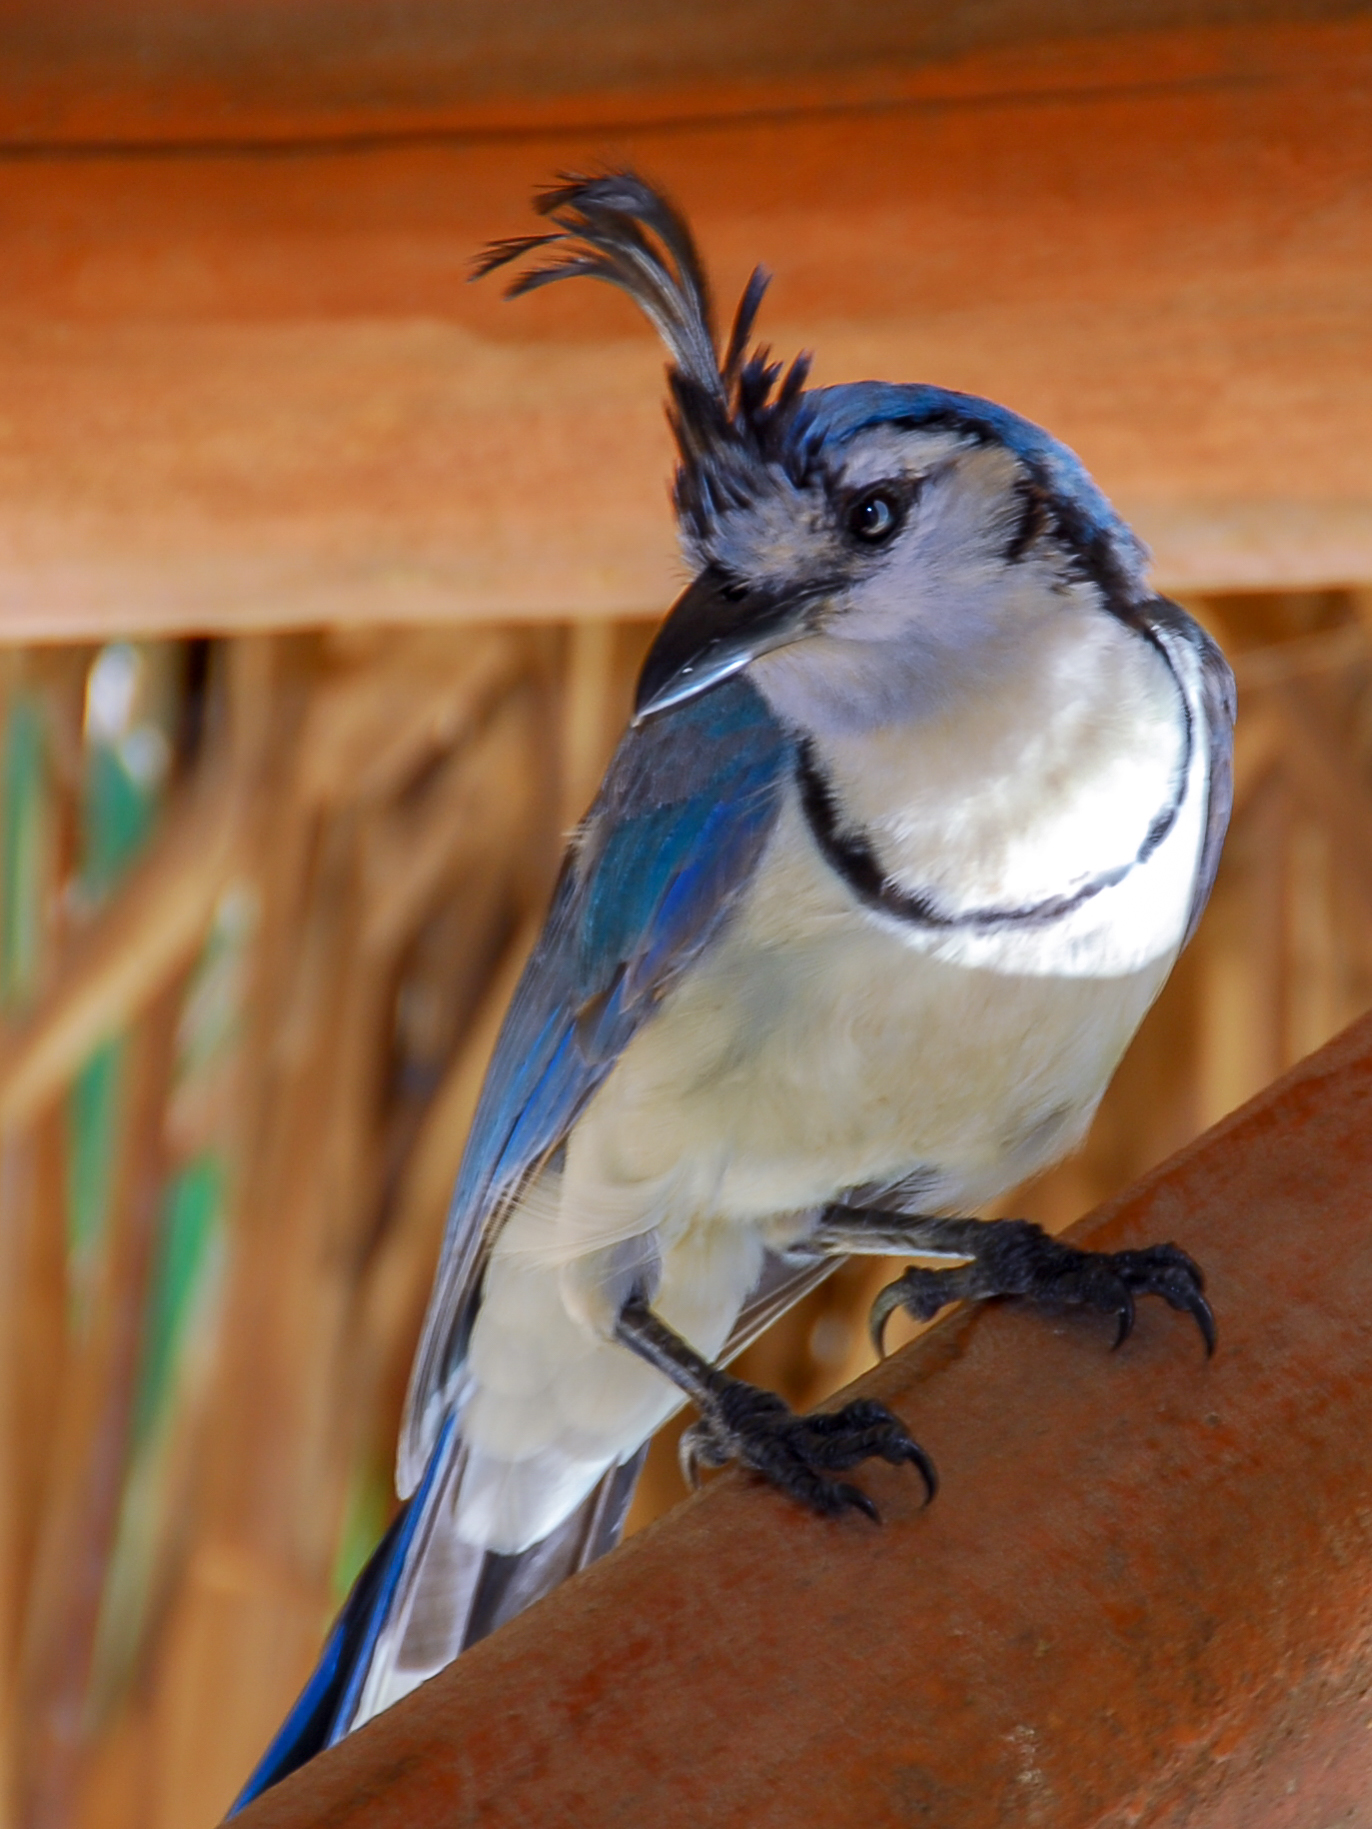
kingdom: Animalia
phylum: Chordata
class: Aves
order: Passeriformes
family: Corvidae
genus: Calocitta
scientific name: Calocitta formosa
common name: White-throated magpie-jay
